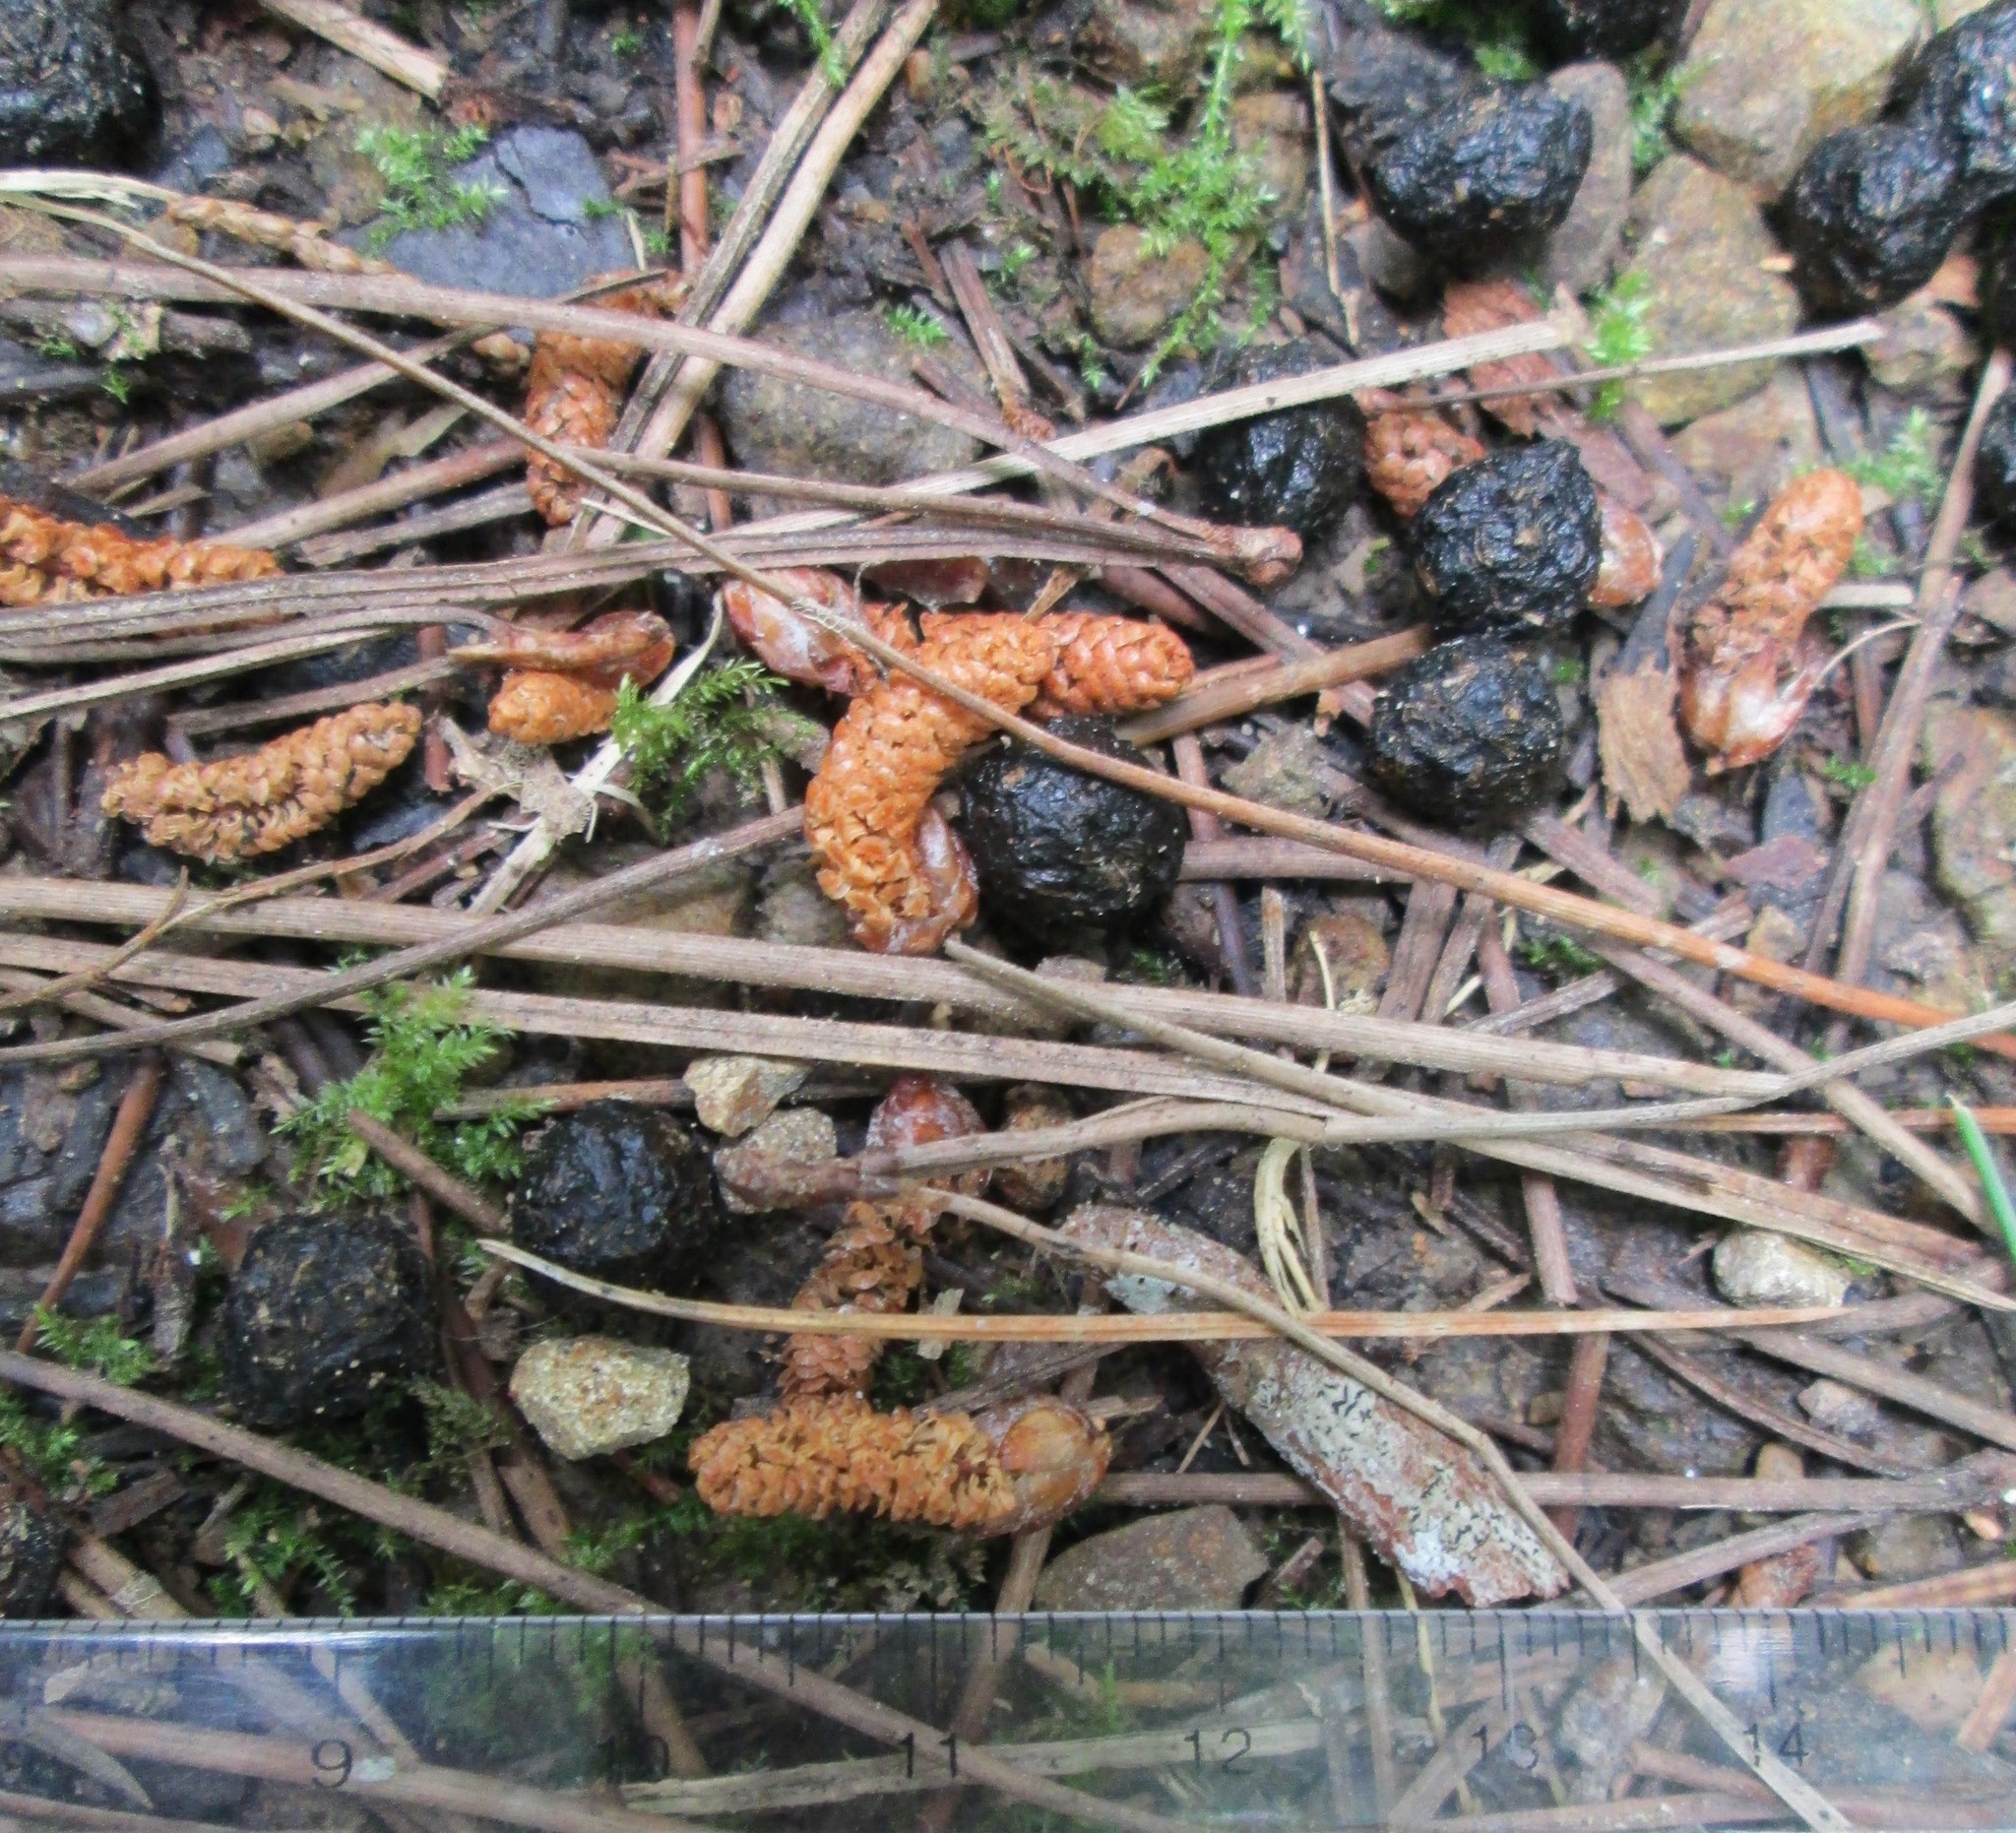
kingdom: Animalia
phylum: Chordata
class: Mammalia
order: Lagomorpha
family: Leporidae
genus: Oryctolagus
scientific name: Oryctolagus cuniculus
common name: European rabbit
